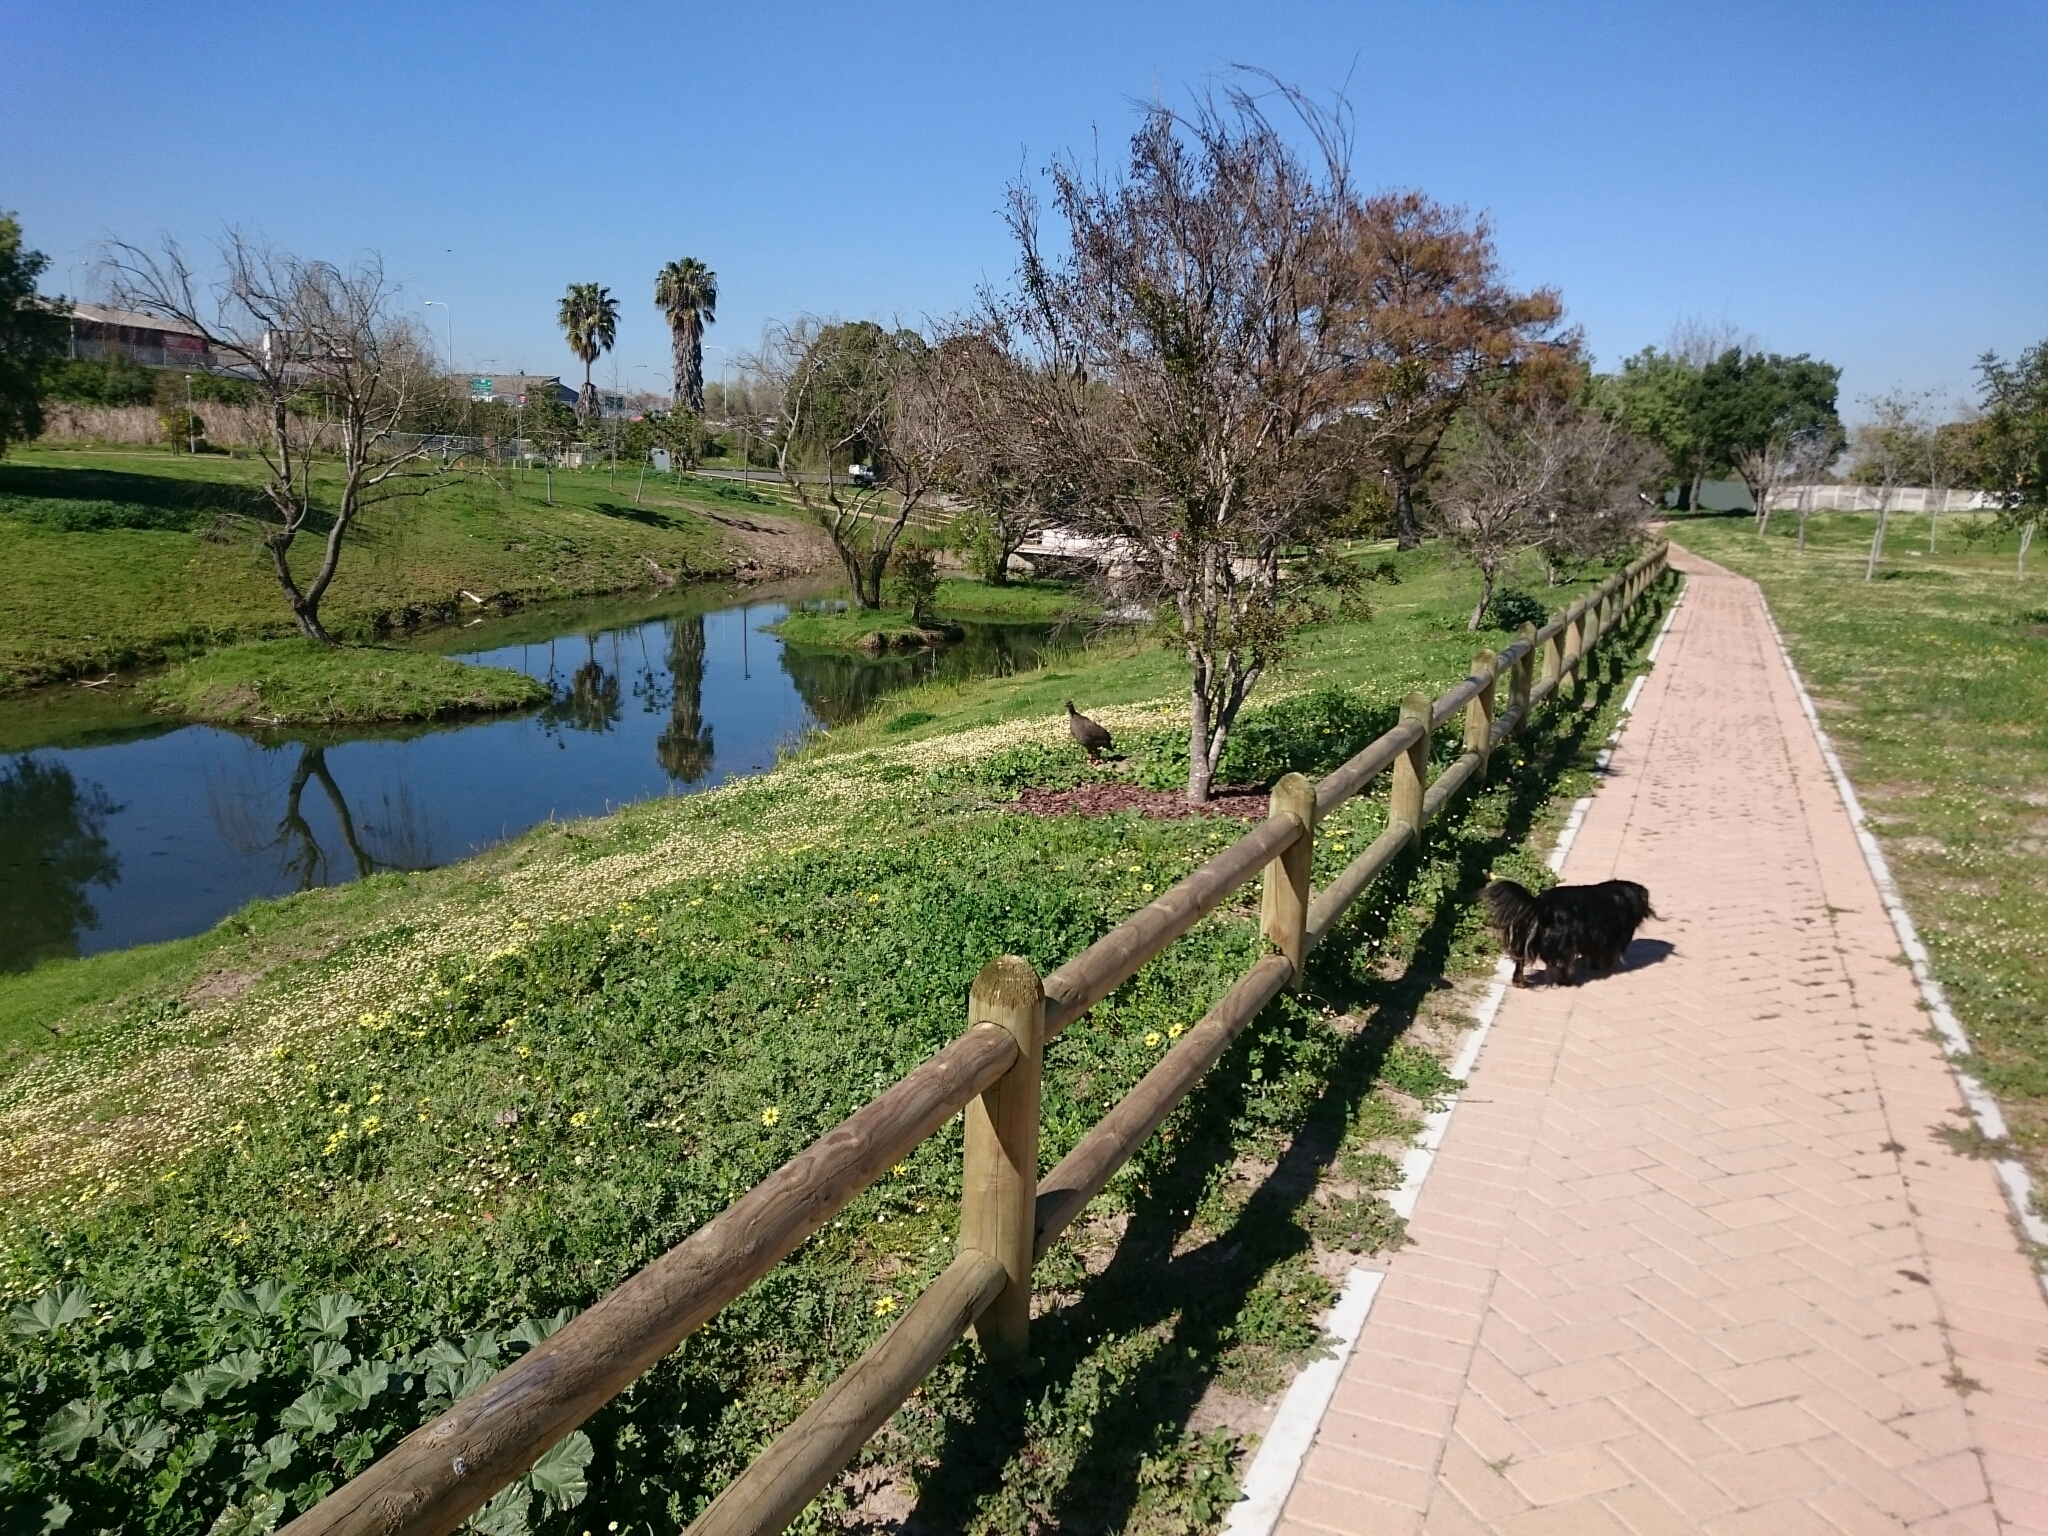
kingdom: Animalia
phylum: Chordata
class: Aves
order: Galliformes
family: Phasianidae
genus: Pternistis
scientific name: Pternistis capensis
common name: Cape spurfowl
